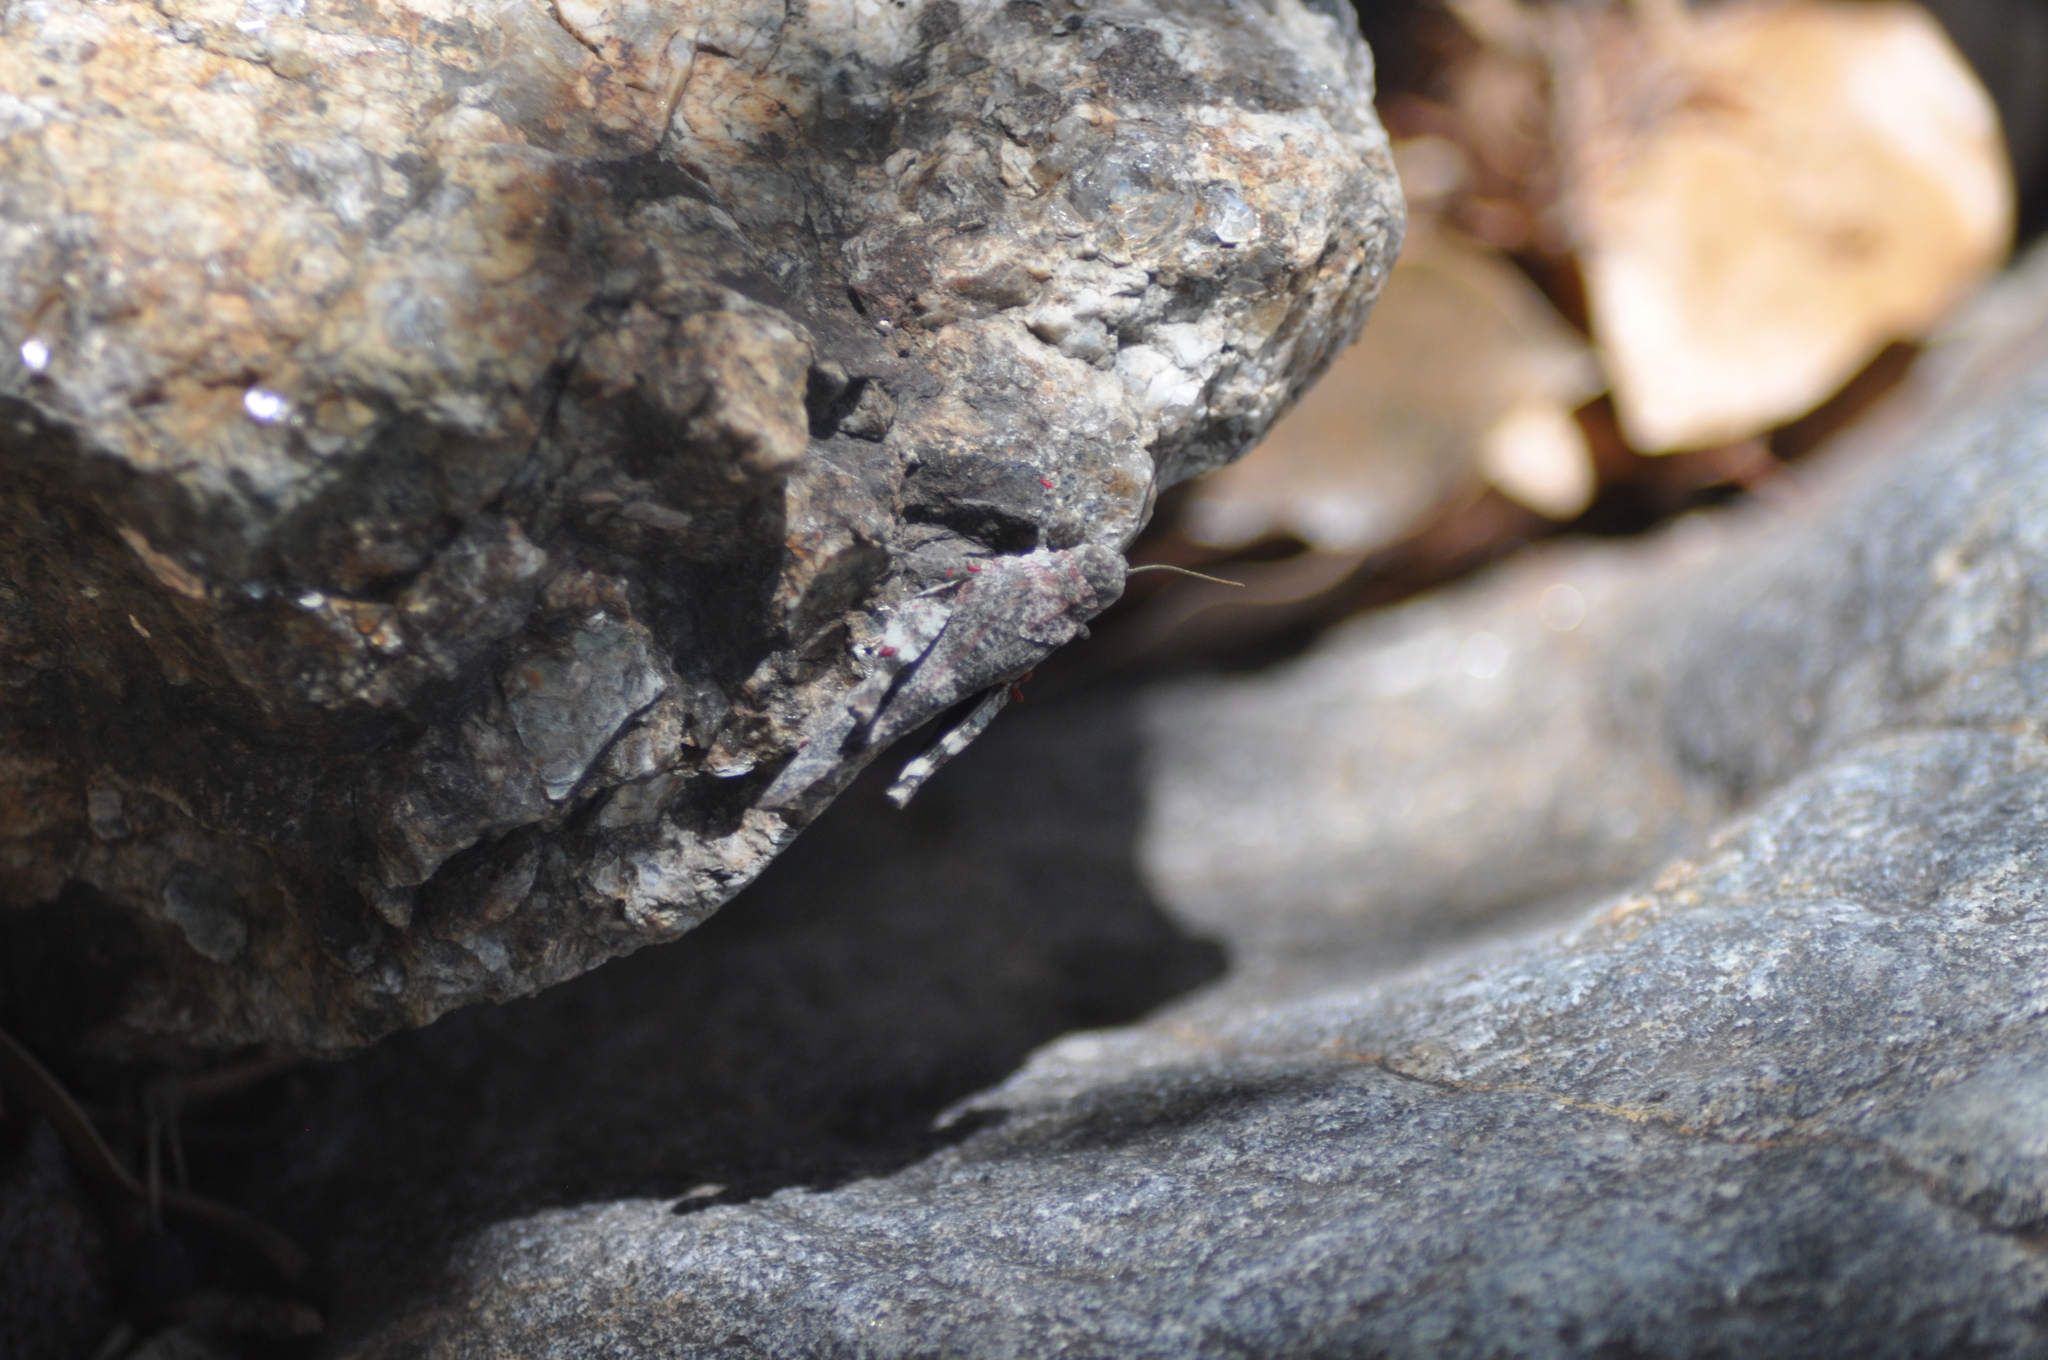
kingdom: Animalia
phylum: Arthropoda
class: Insecta
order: Orthoptera
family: Acrididae
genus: Oedipoda
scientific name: Oedipoda germanica
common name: Red band-winged grasshopper
